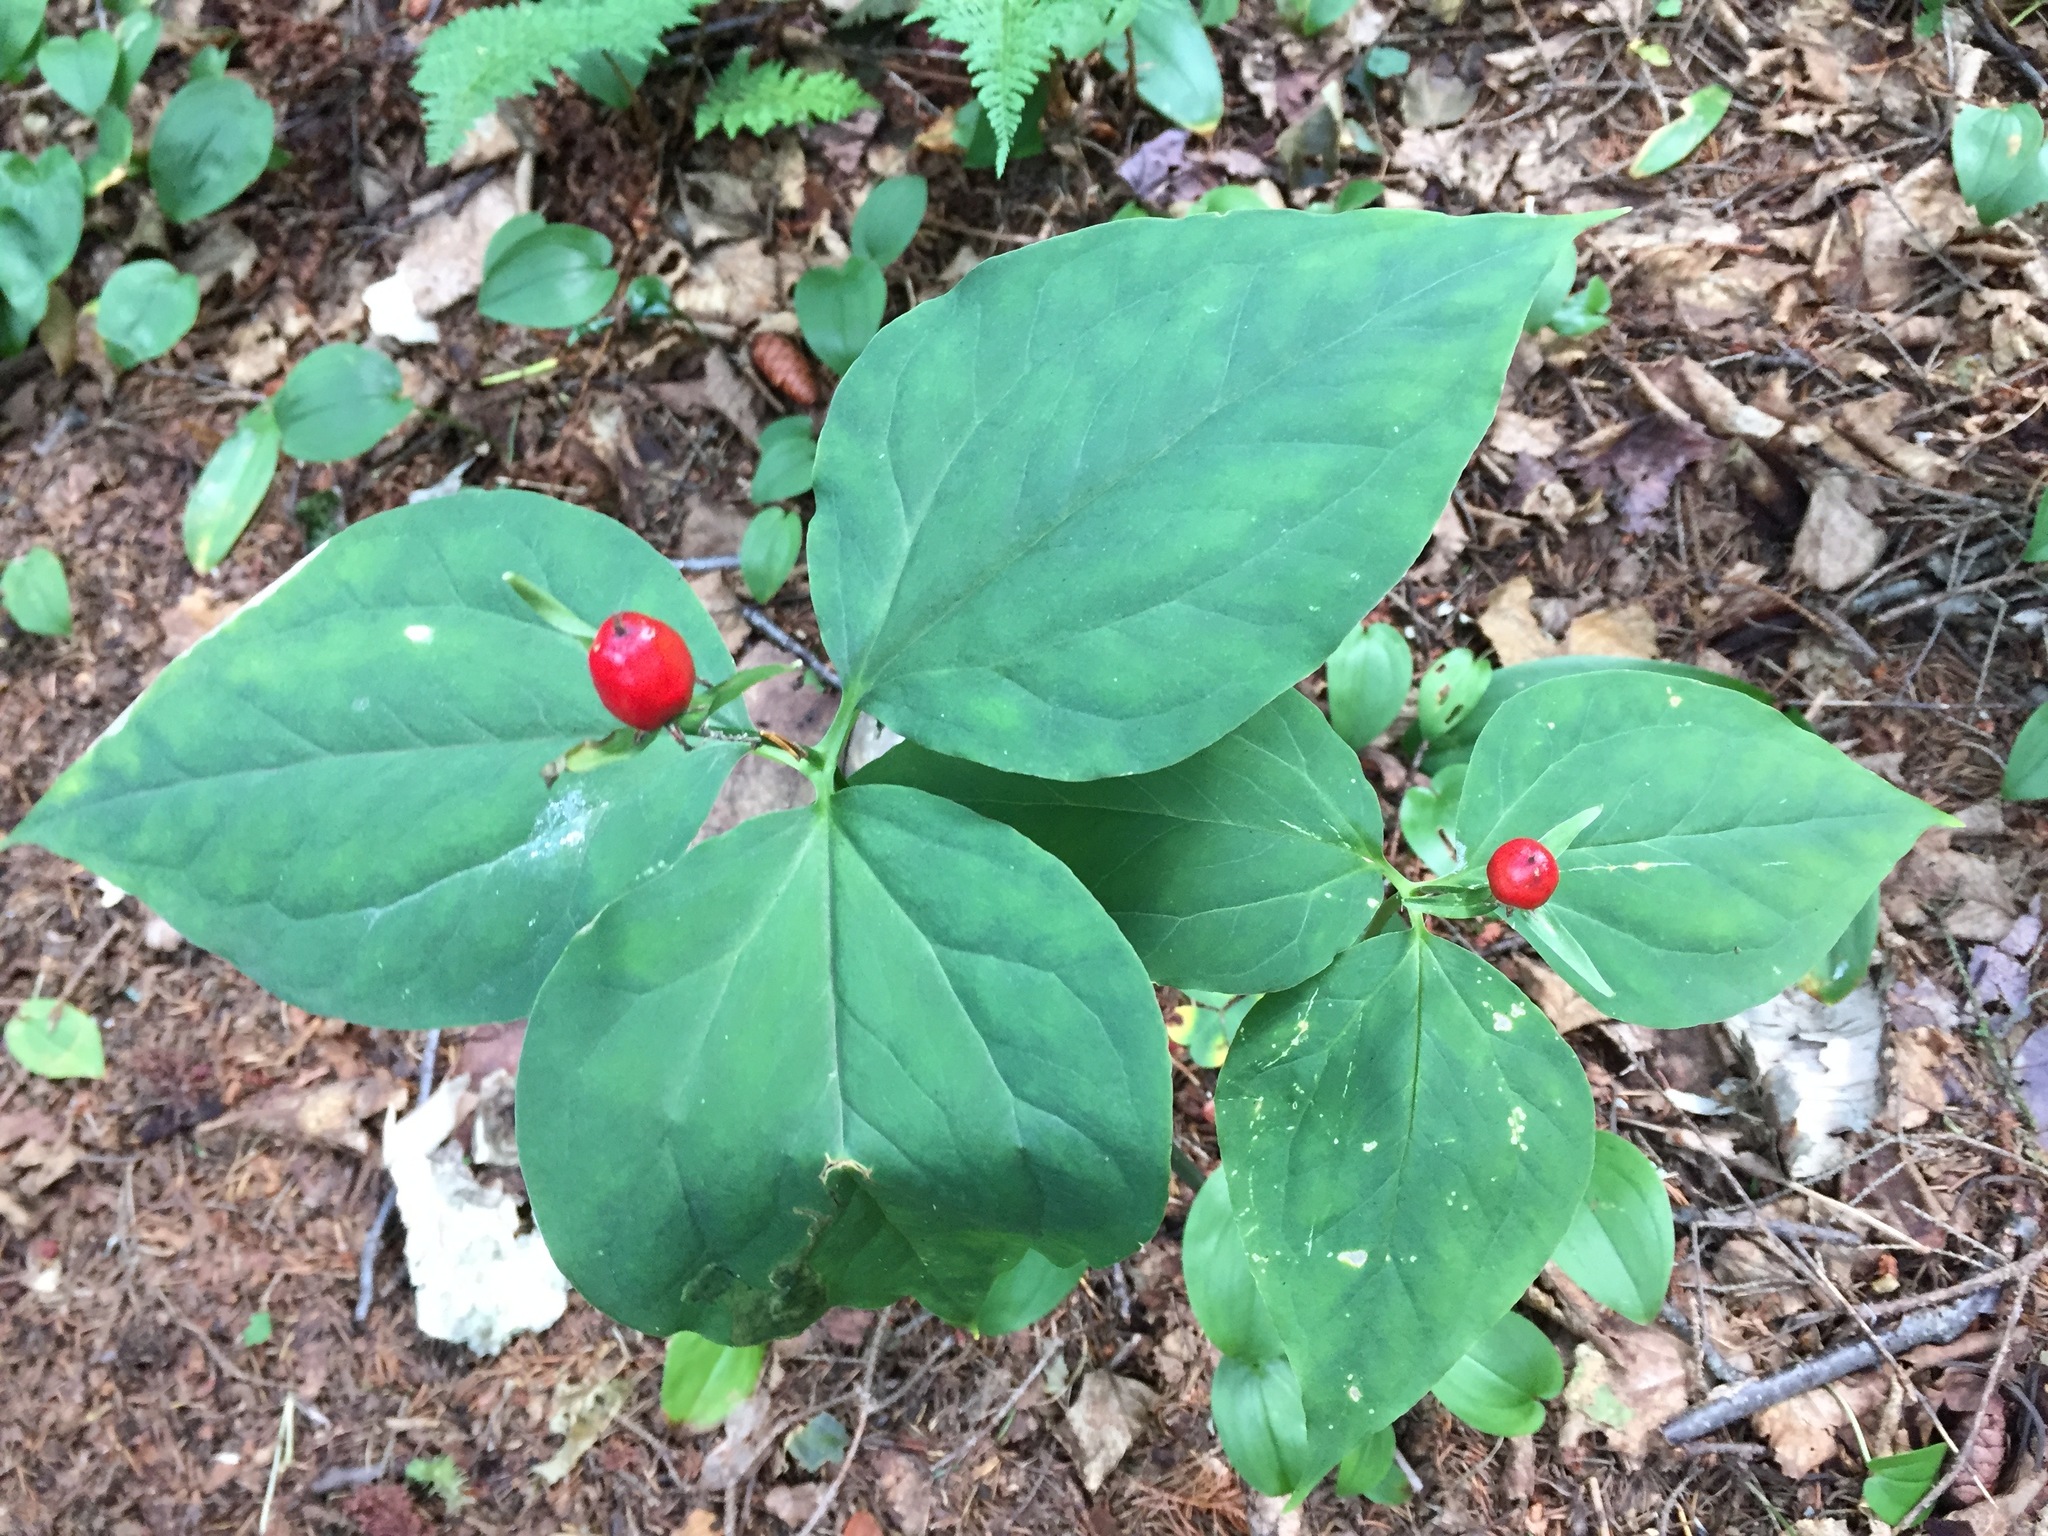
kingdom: Plantae
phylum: Tracheophyta
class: Liliopsida
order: Liliales
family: Melanthiaceae
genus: Trillium
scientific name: Trillium undulatum
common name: Paint trillium
